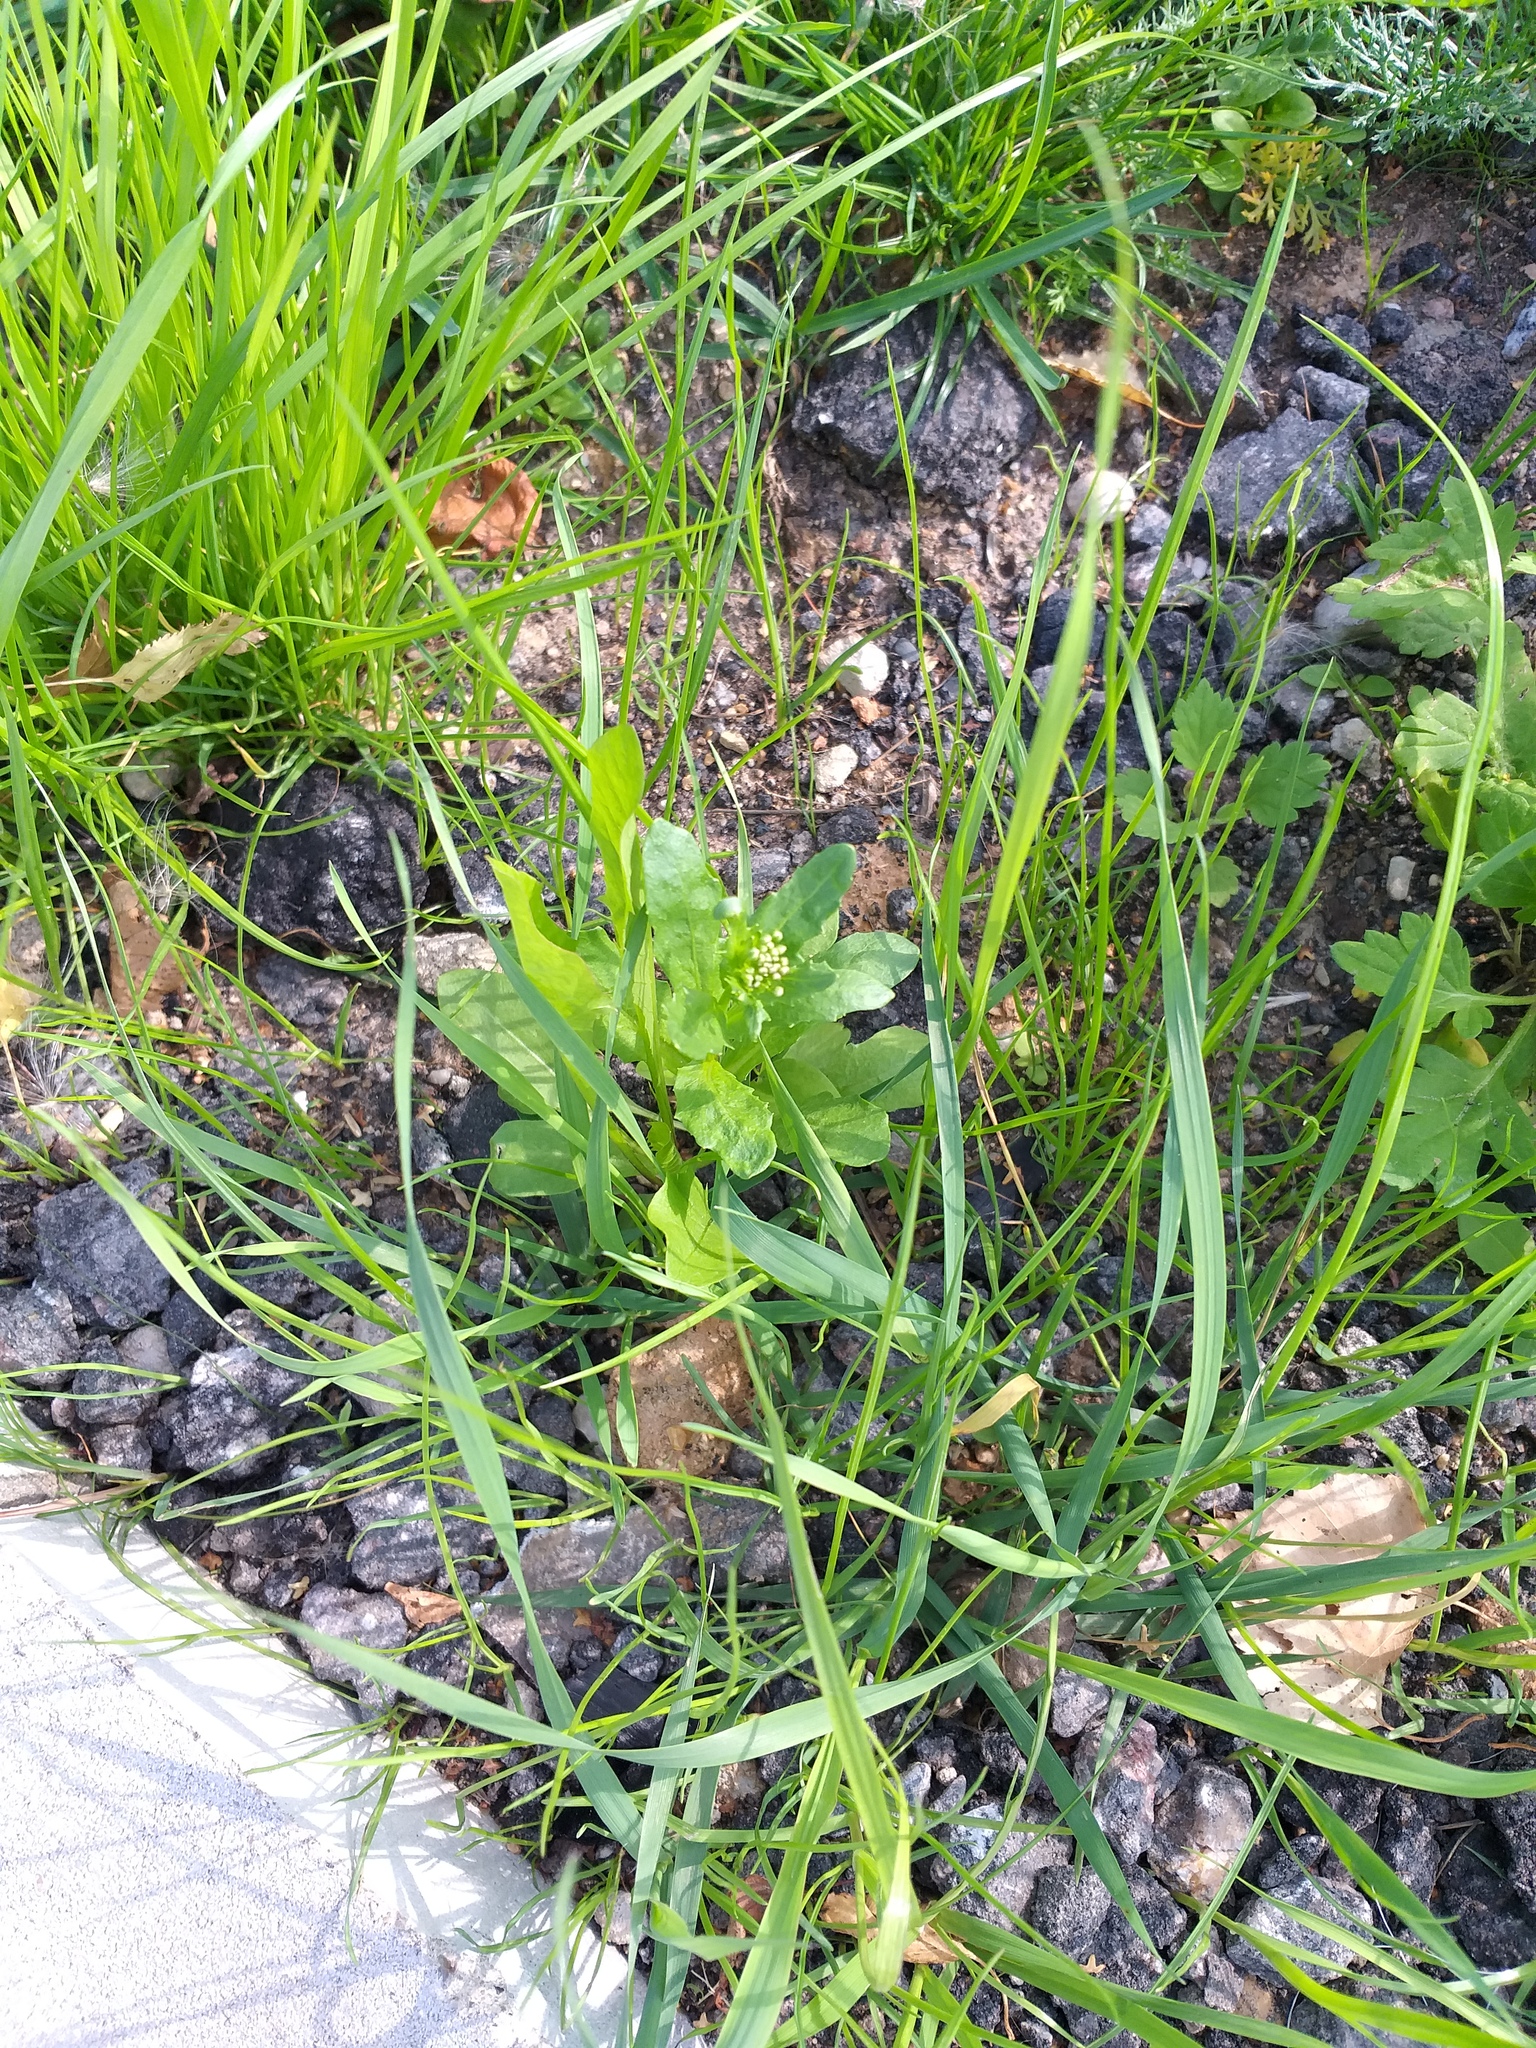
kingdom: Plantae
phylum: Tracheophyta
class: Magnoliopsida
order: Brassicales
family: Brassicaceae
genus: Thlaspi
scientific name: Thlaspi arvense
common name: Field pennycress
